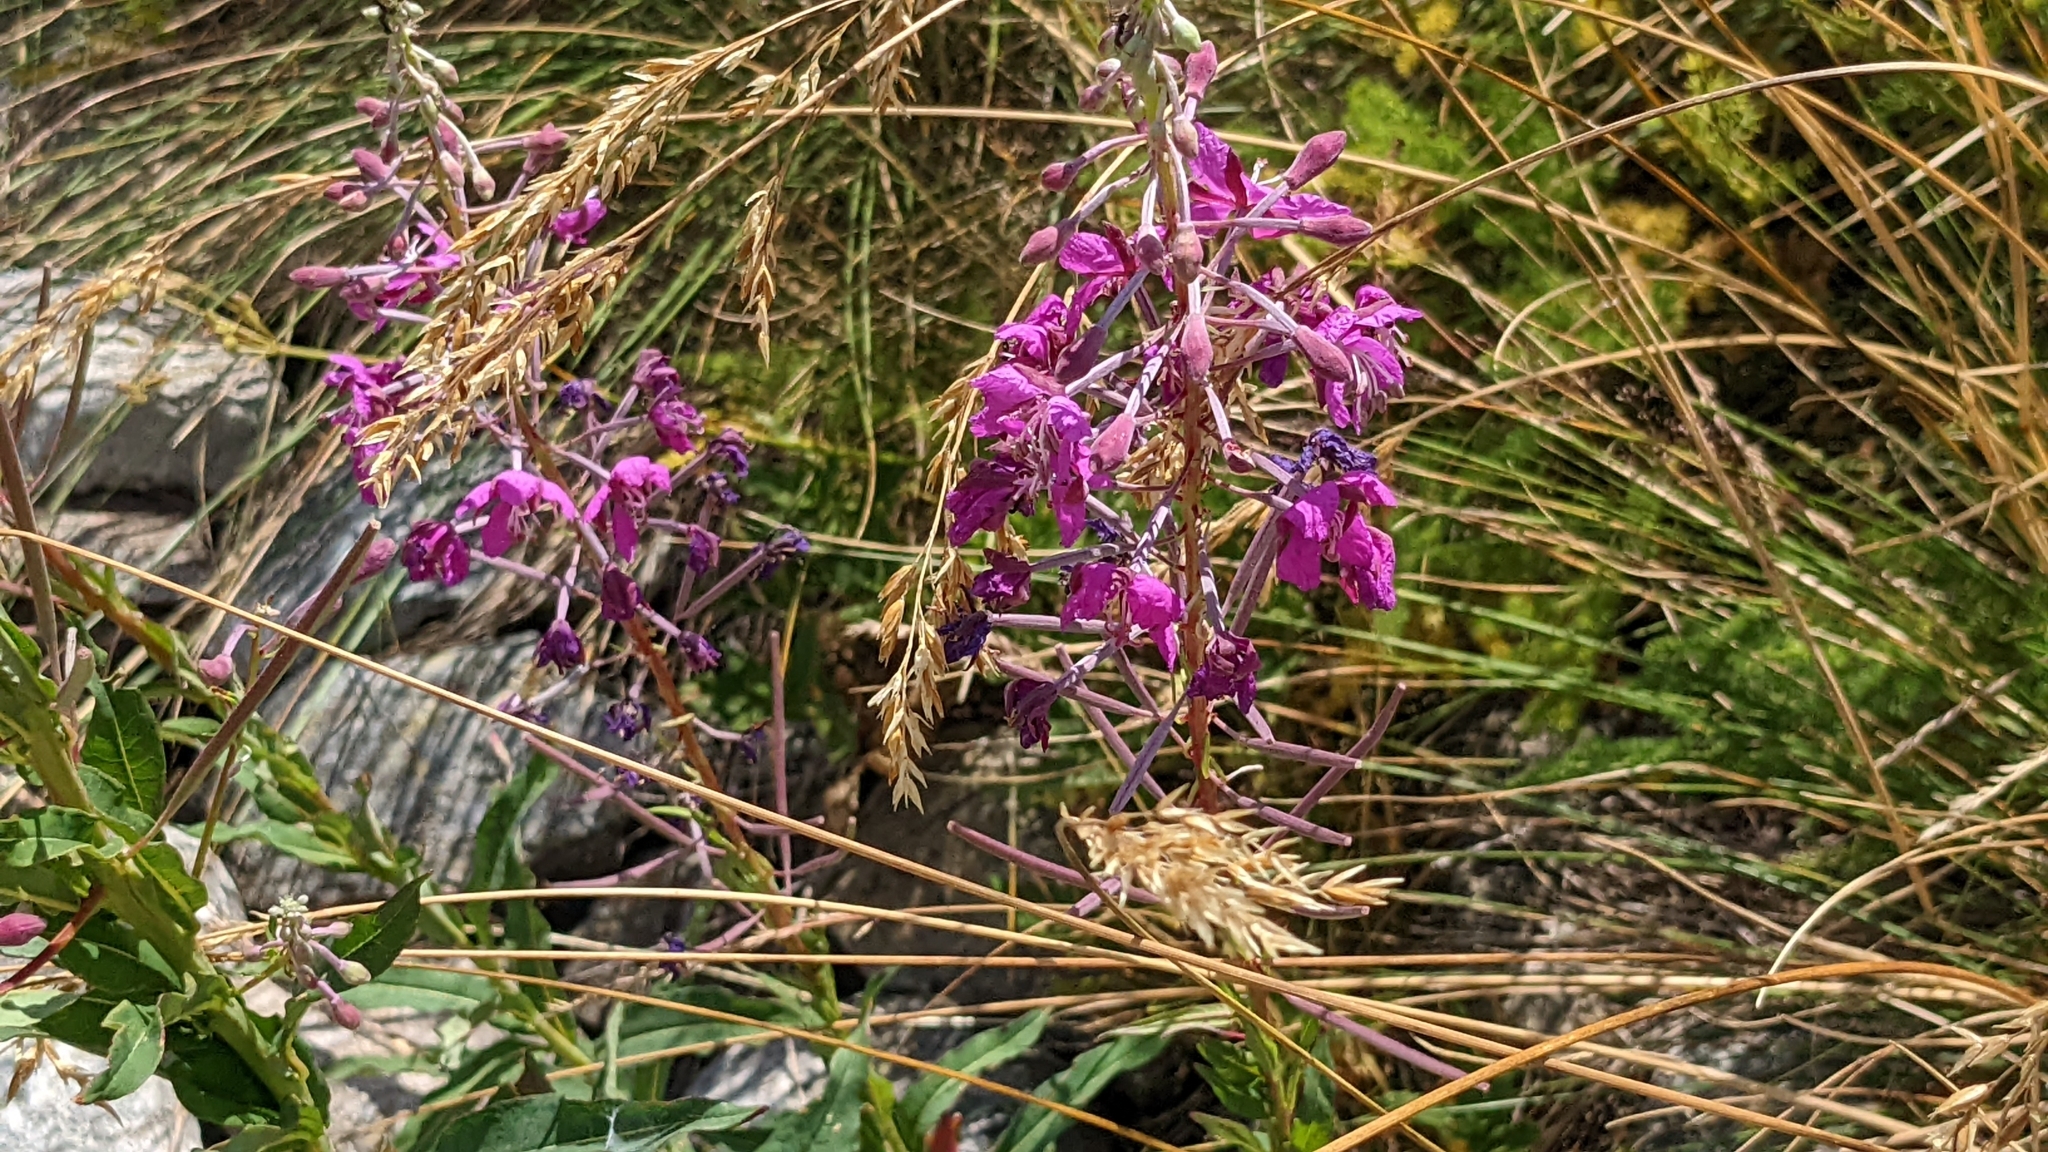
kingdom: Plantae
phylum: Tracheophyta
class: Magnoliopsida
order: Myrtales
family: Onagraceae
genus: Chamaenerion
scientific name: Chamaenerion angustifolium
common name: Fireweed
